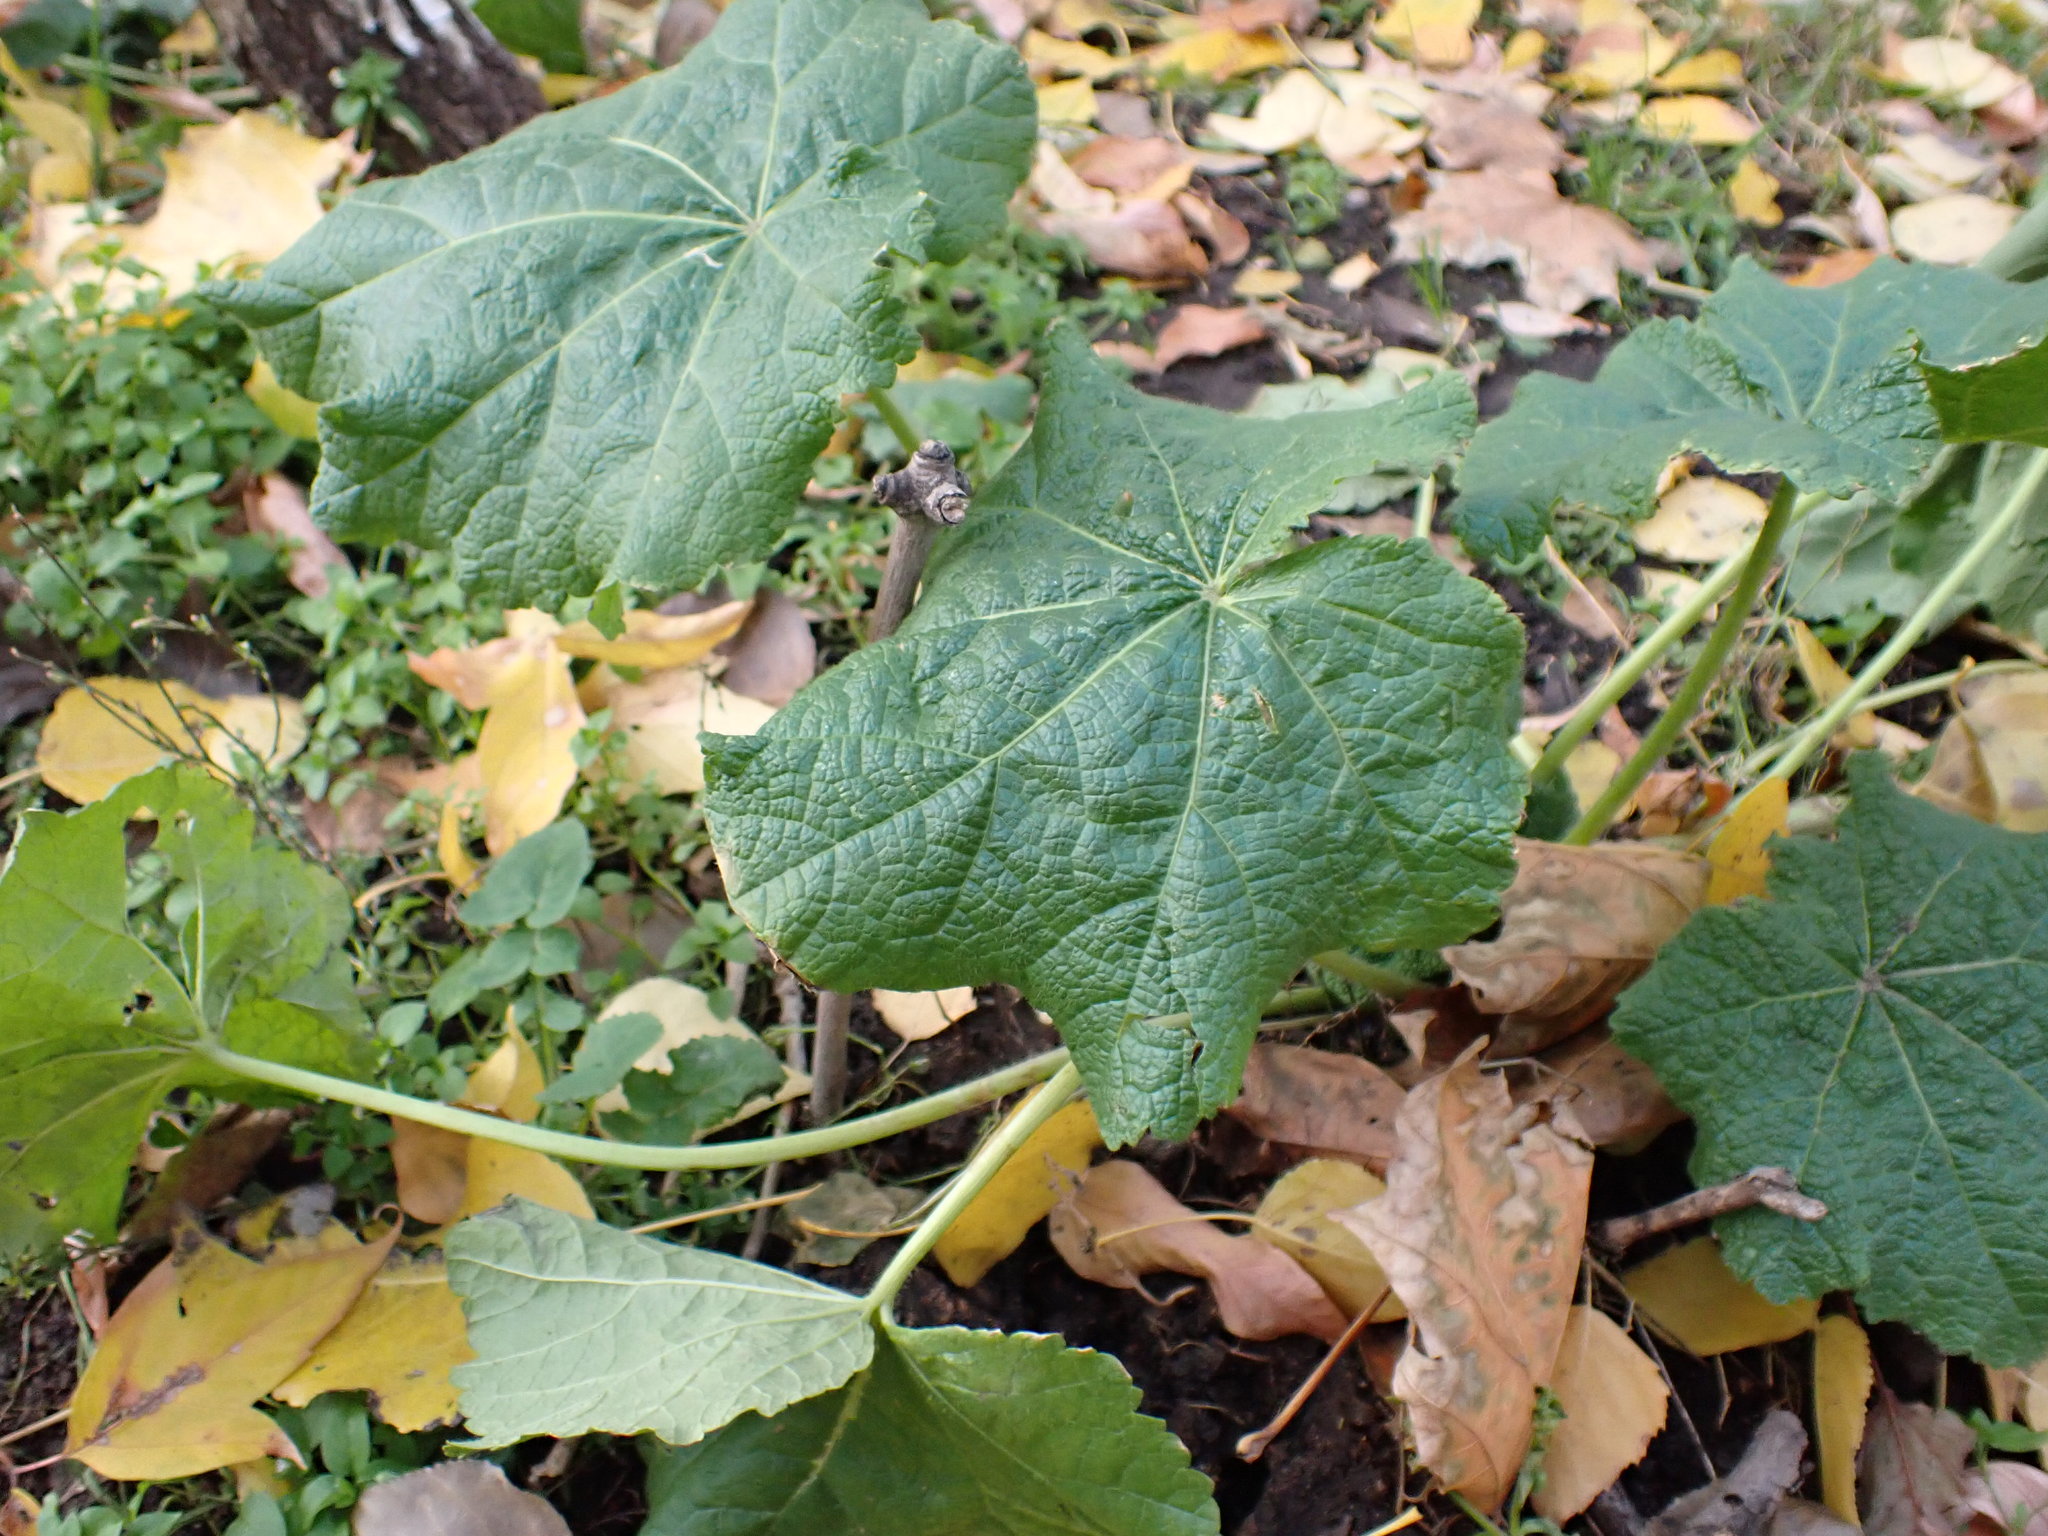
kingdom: Plantae
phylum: Tracheophyta
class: Magnoliopsida
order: Malvales
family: Malvaceae
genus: Alcea
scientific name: Alcea rosea
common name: Hollyhock
